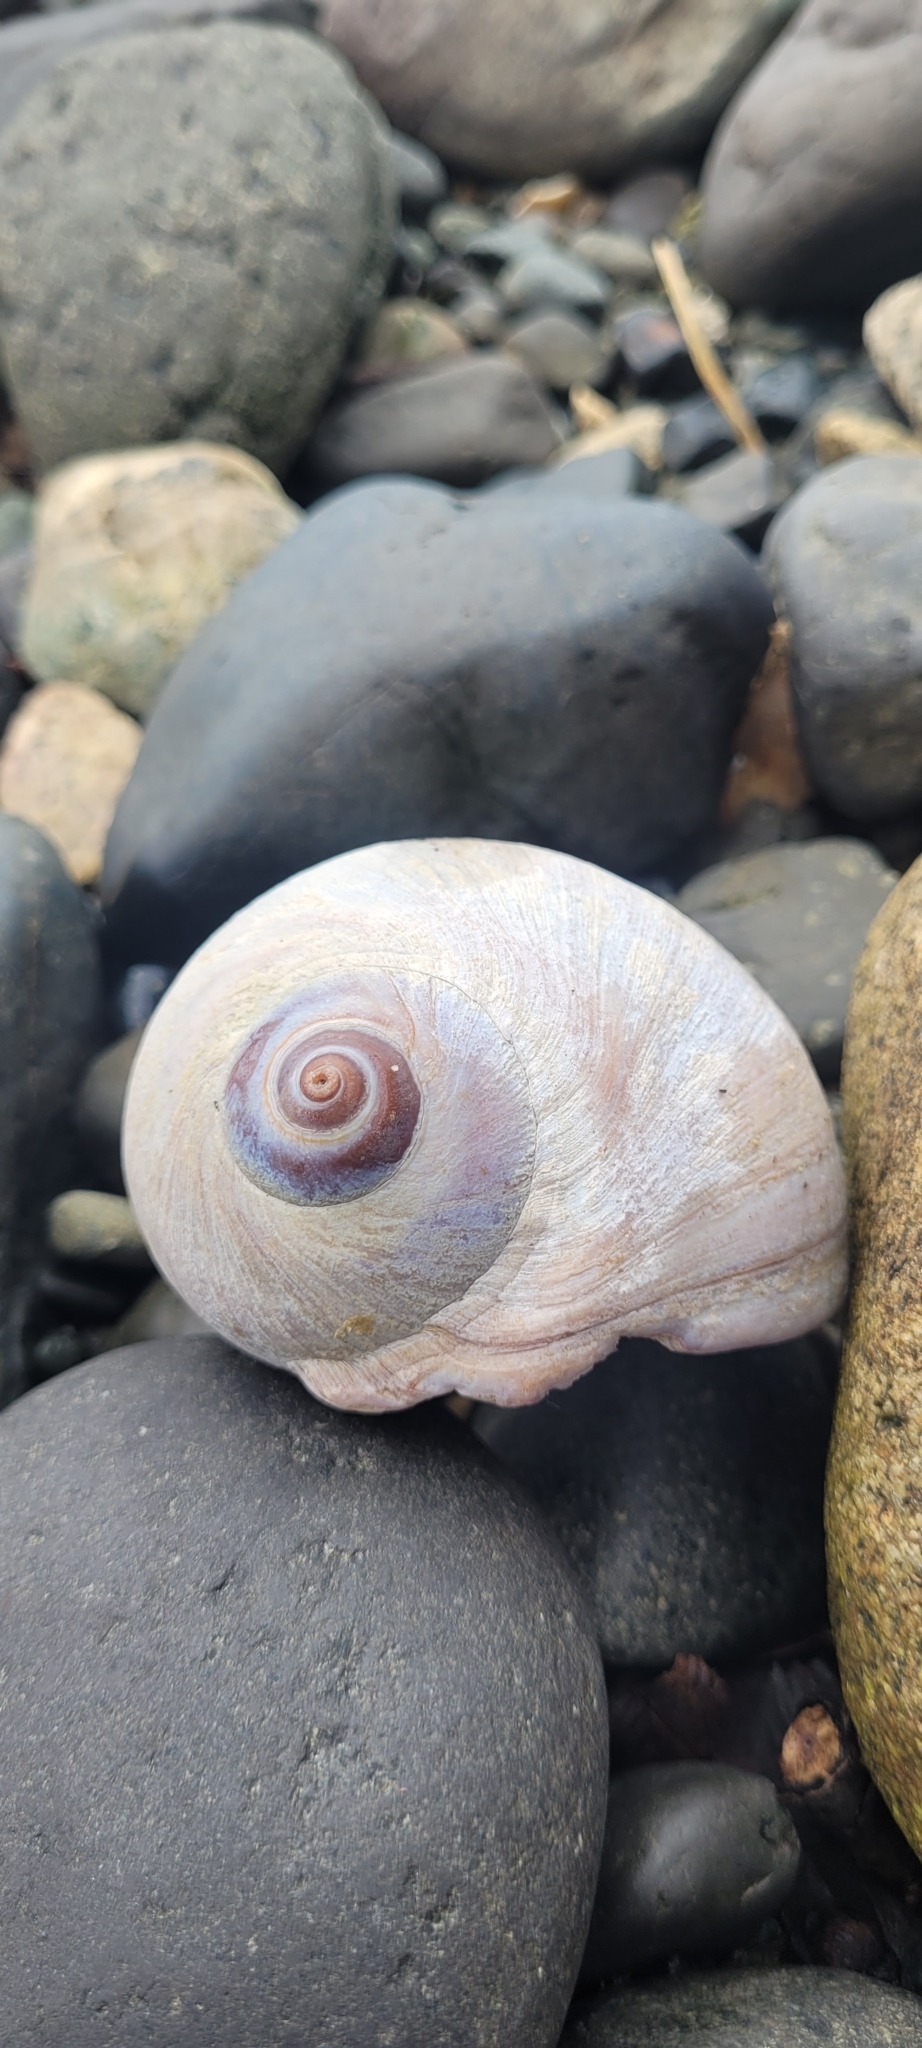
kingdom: Animalia
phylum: Mollusca
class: Gastropoda
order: Littorinimorpha
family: Naticidae
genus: Neverita
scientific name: Neverita lewisii
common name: Lewis' moonsnail
